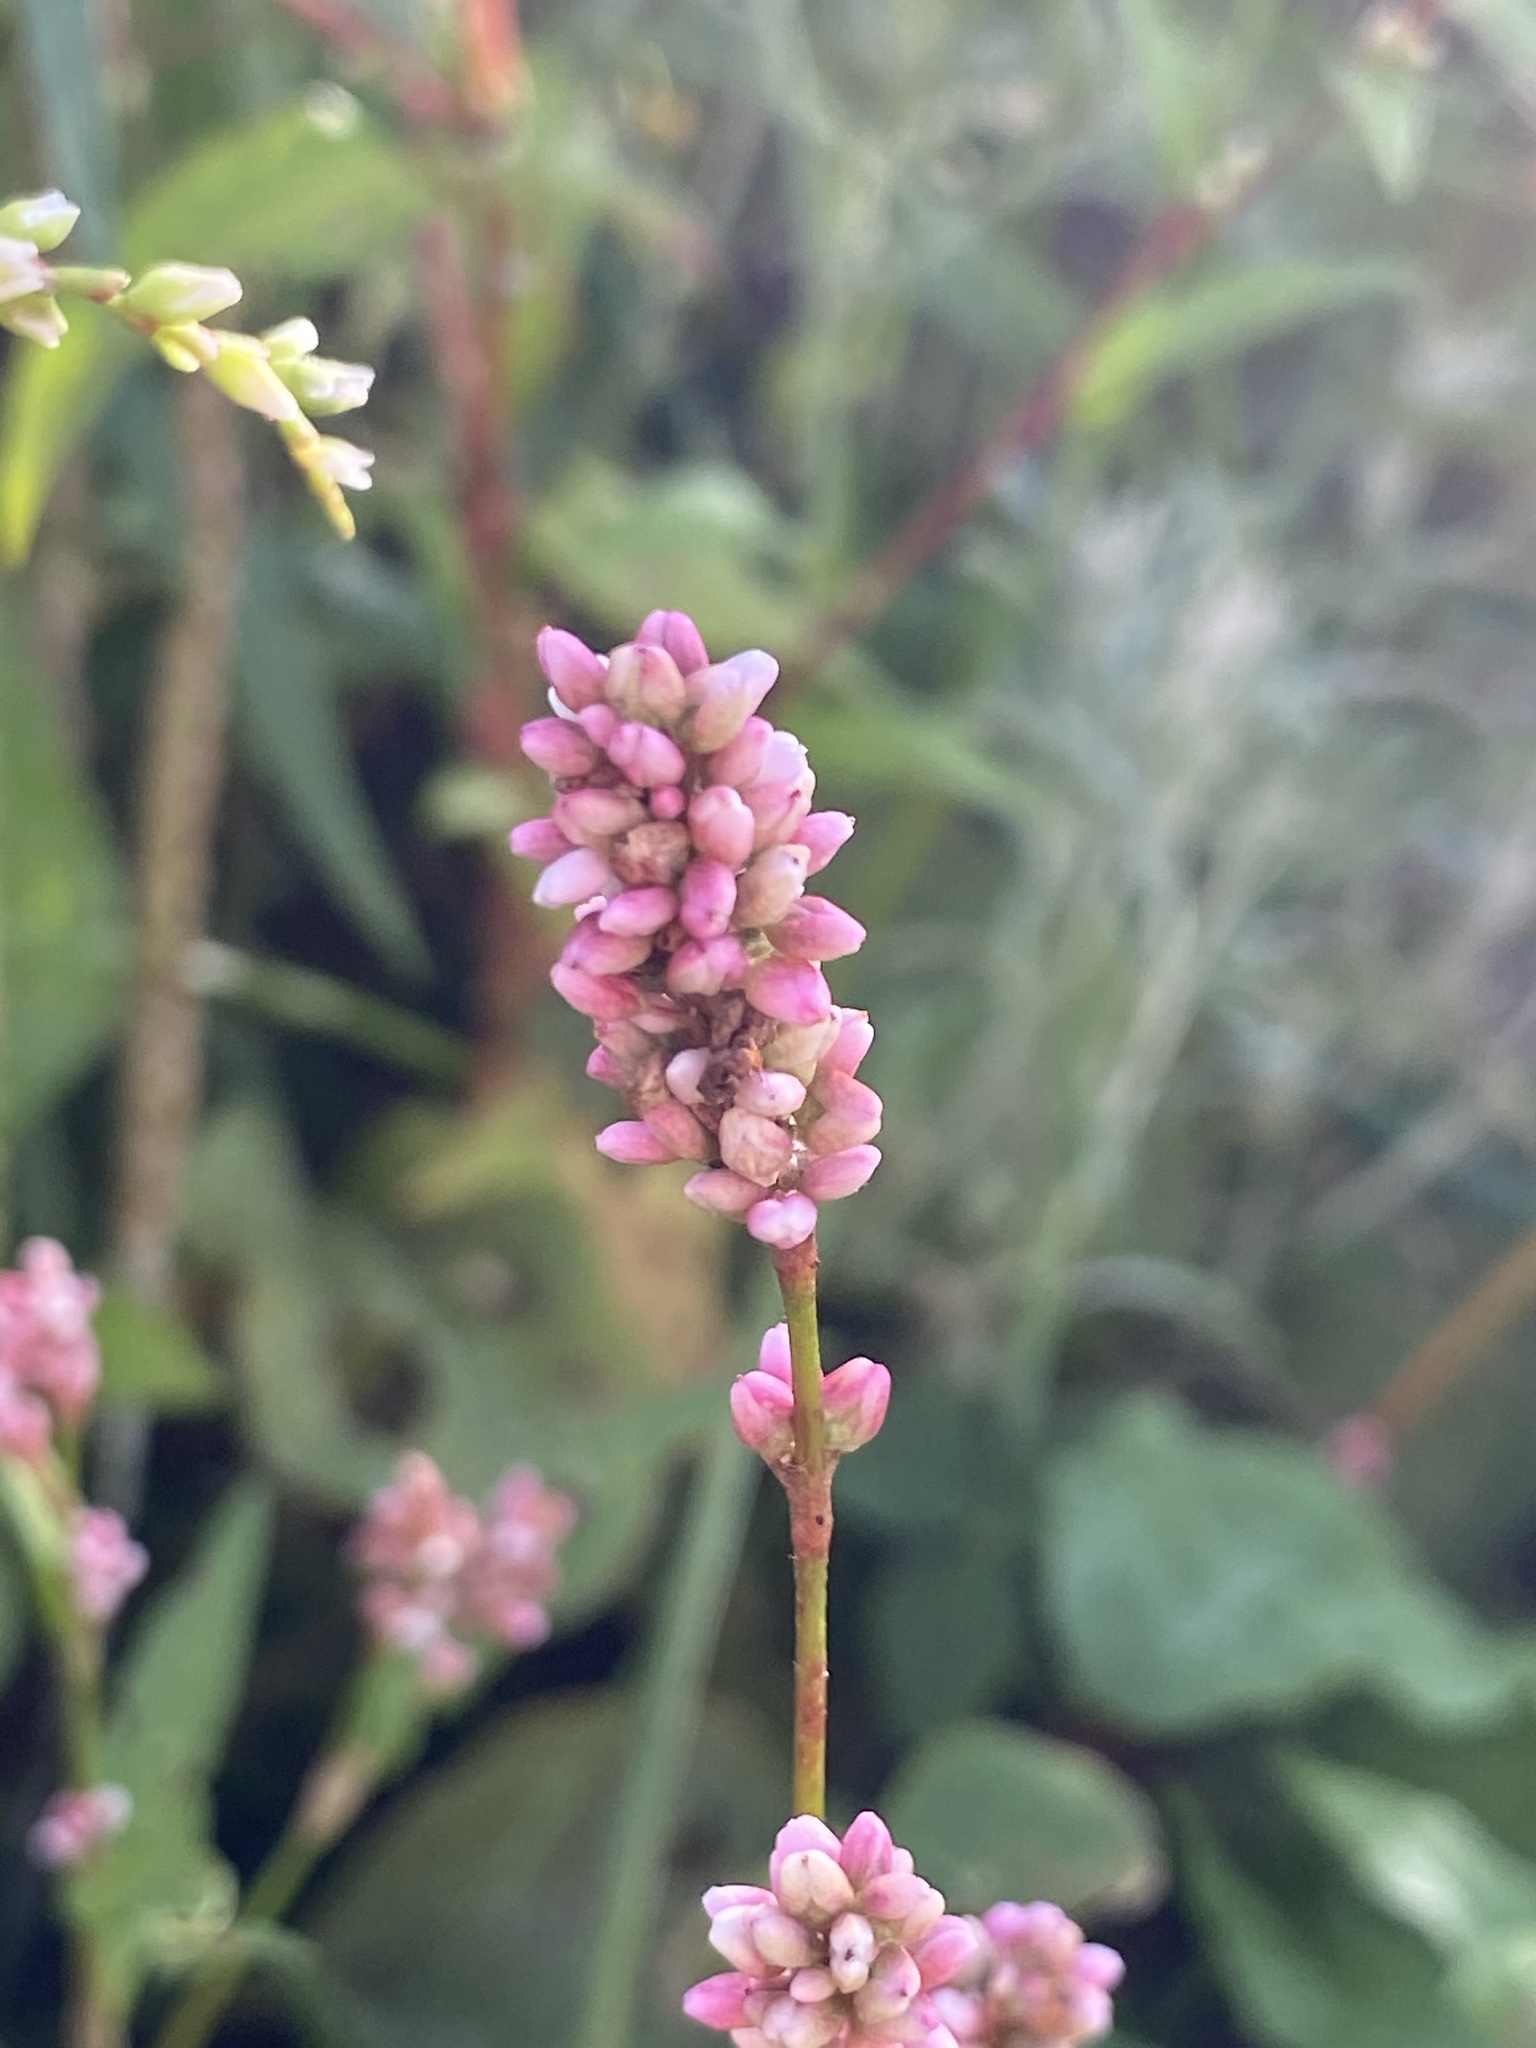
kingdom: Plantae
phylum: Tracheophyta
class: Magnoliopsida
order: Caryophyllales
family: Polygonaceae
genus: Persicaria
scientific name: Persicaria maculosa
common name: Redshank
